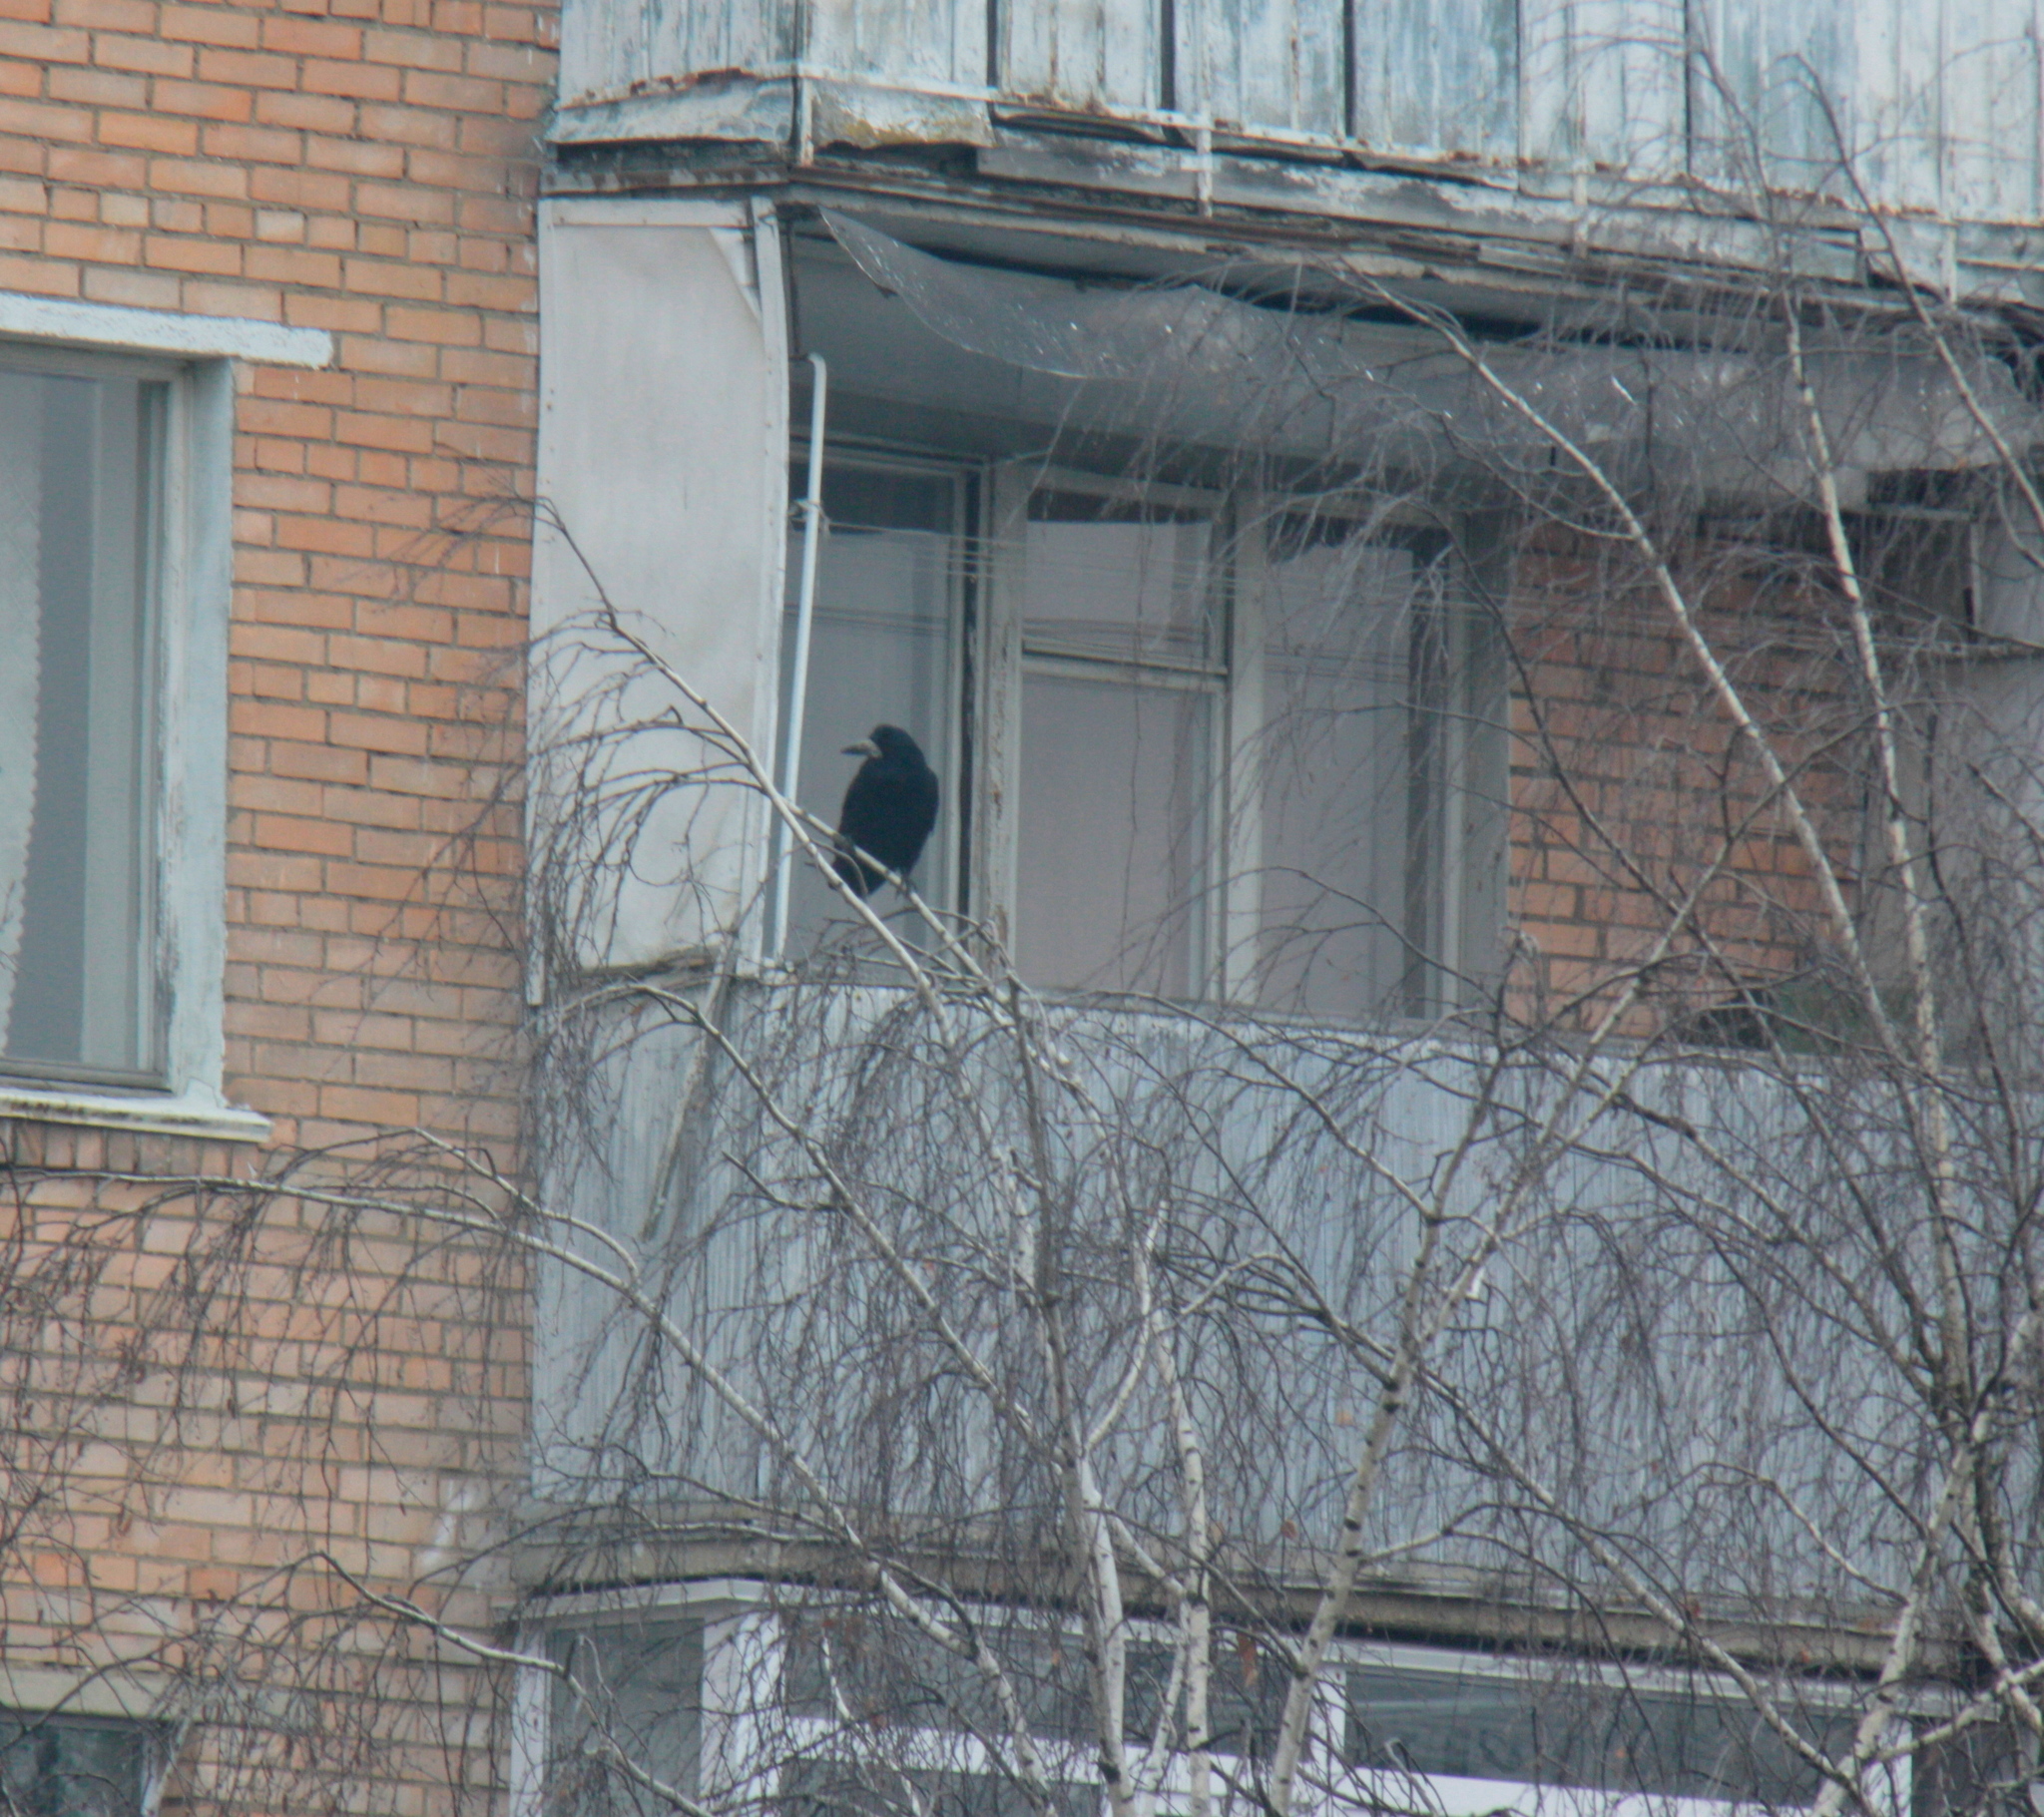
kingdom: Animalia
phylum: Chordata
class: Aves
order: Passeriformes
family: Corvidae
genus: Corvus
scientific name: Corvus frugilegus
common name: Rook
